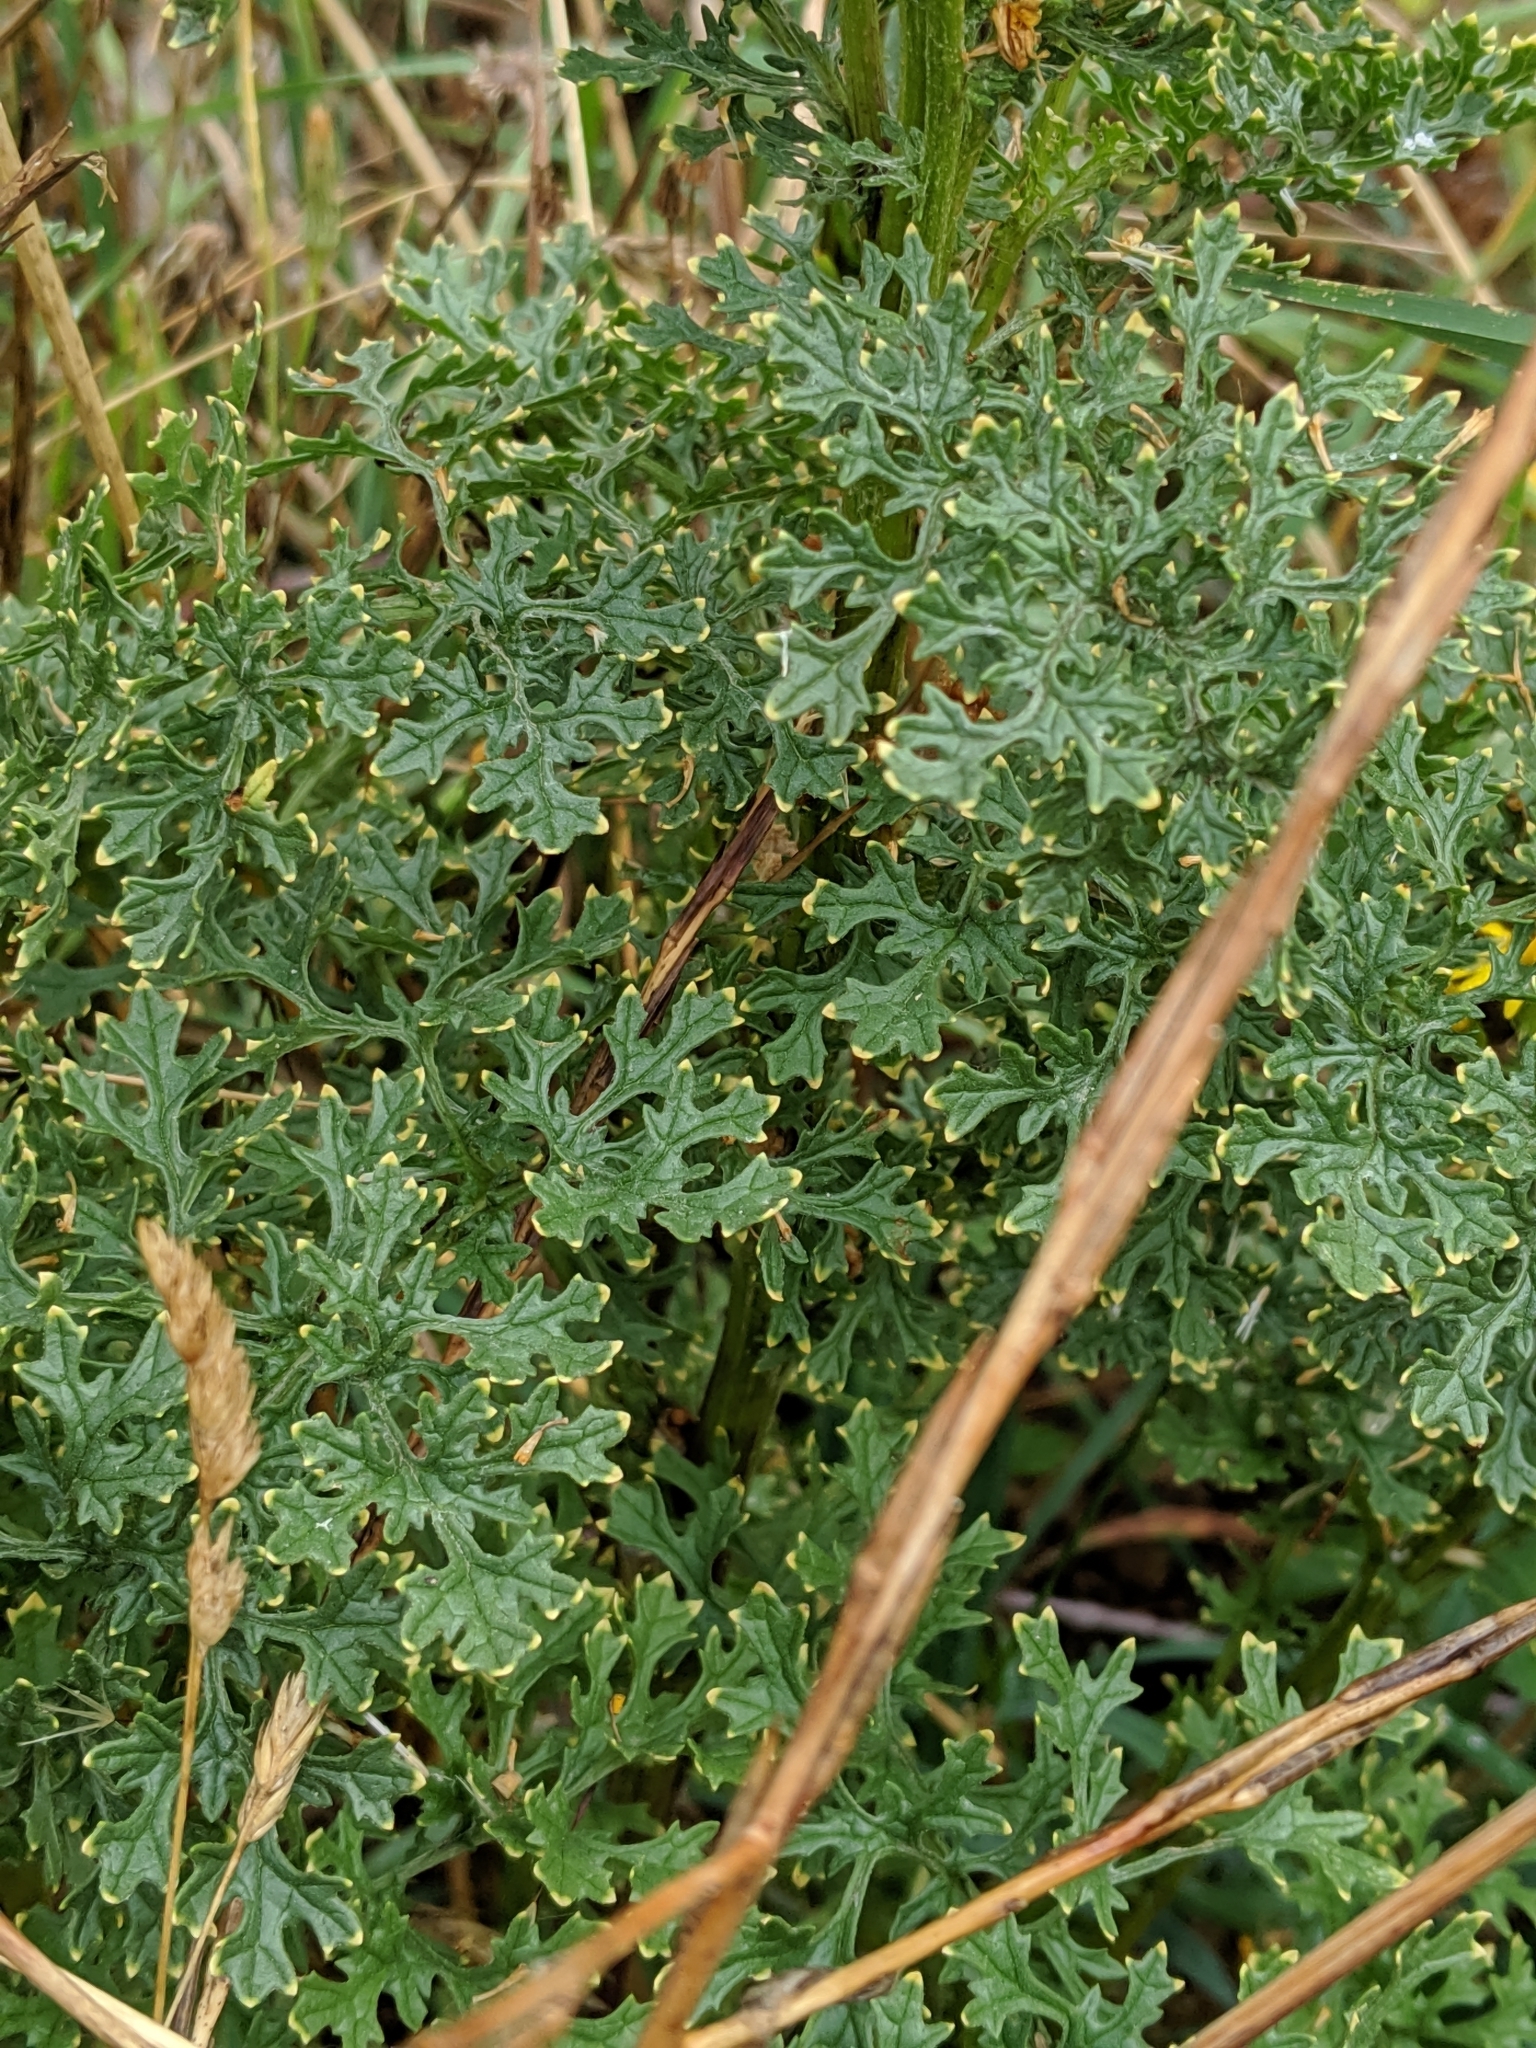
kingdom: Plantae
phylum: Tracheophyta
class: Magnoliopsida
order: Asterales
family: Asteraceae
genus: Jacobaea
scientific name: Jacobaea vulgaris
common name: Stinking willie
